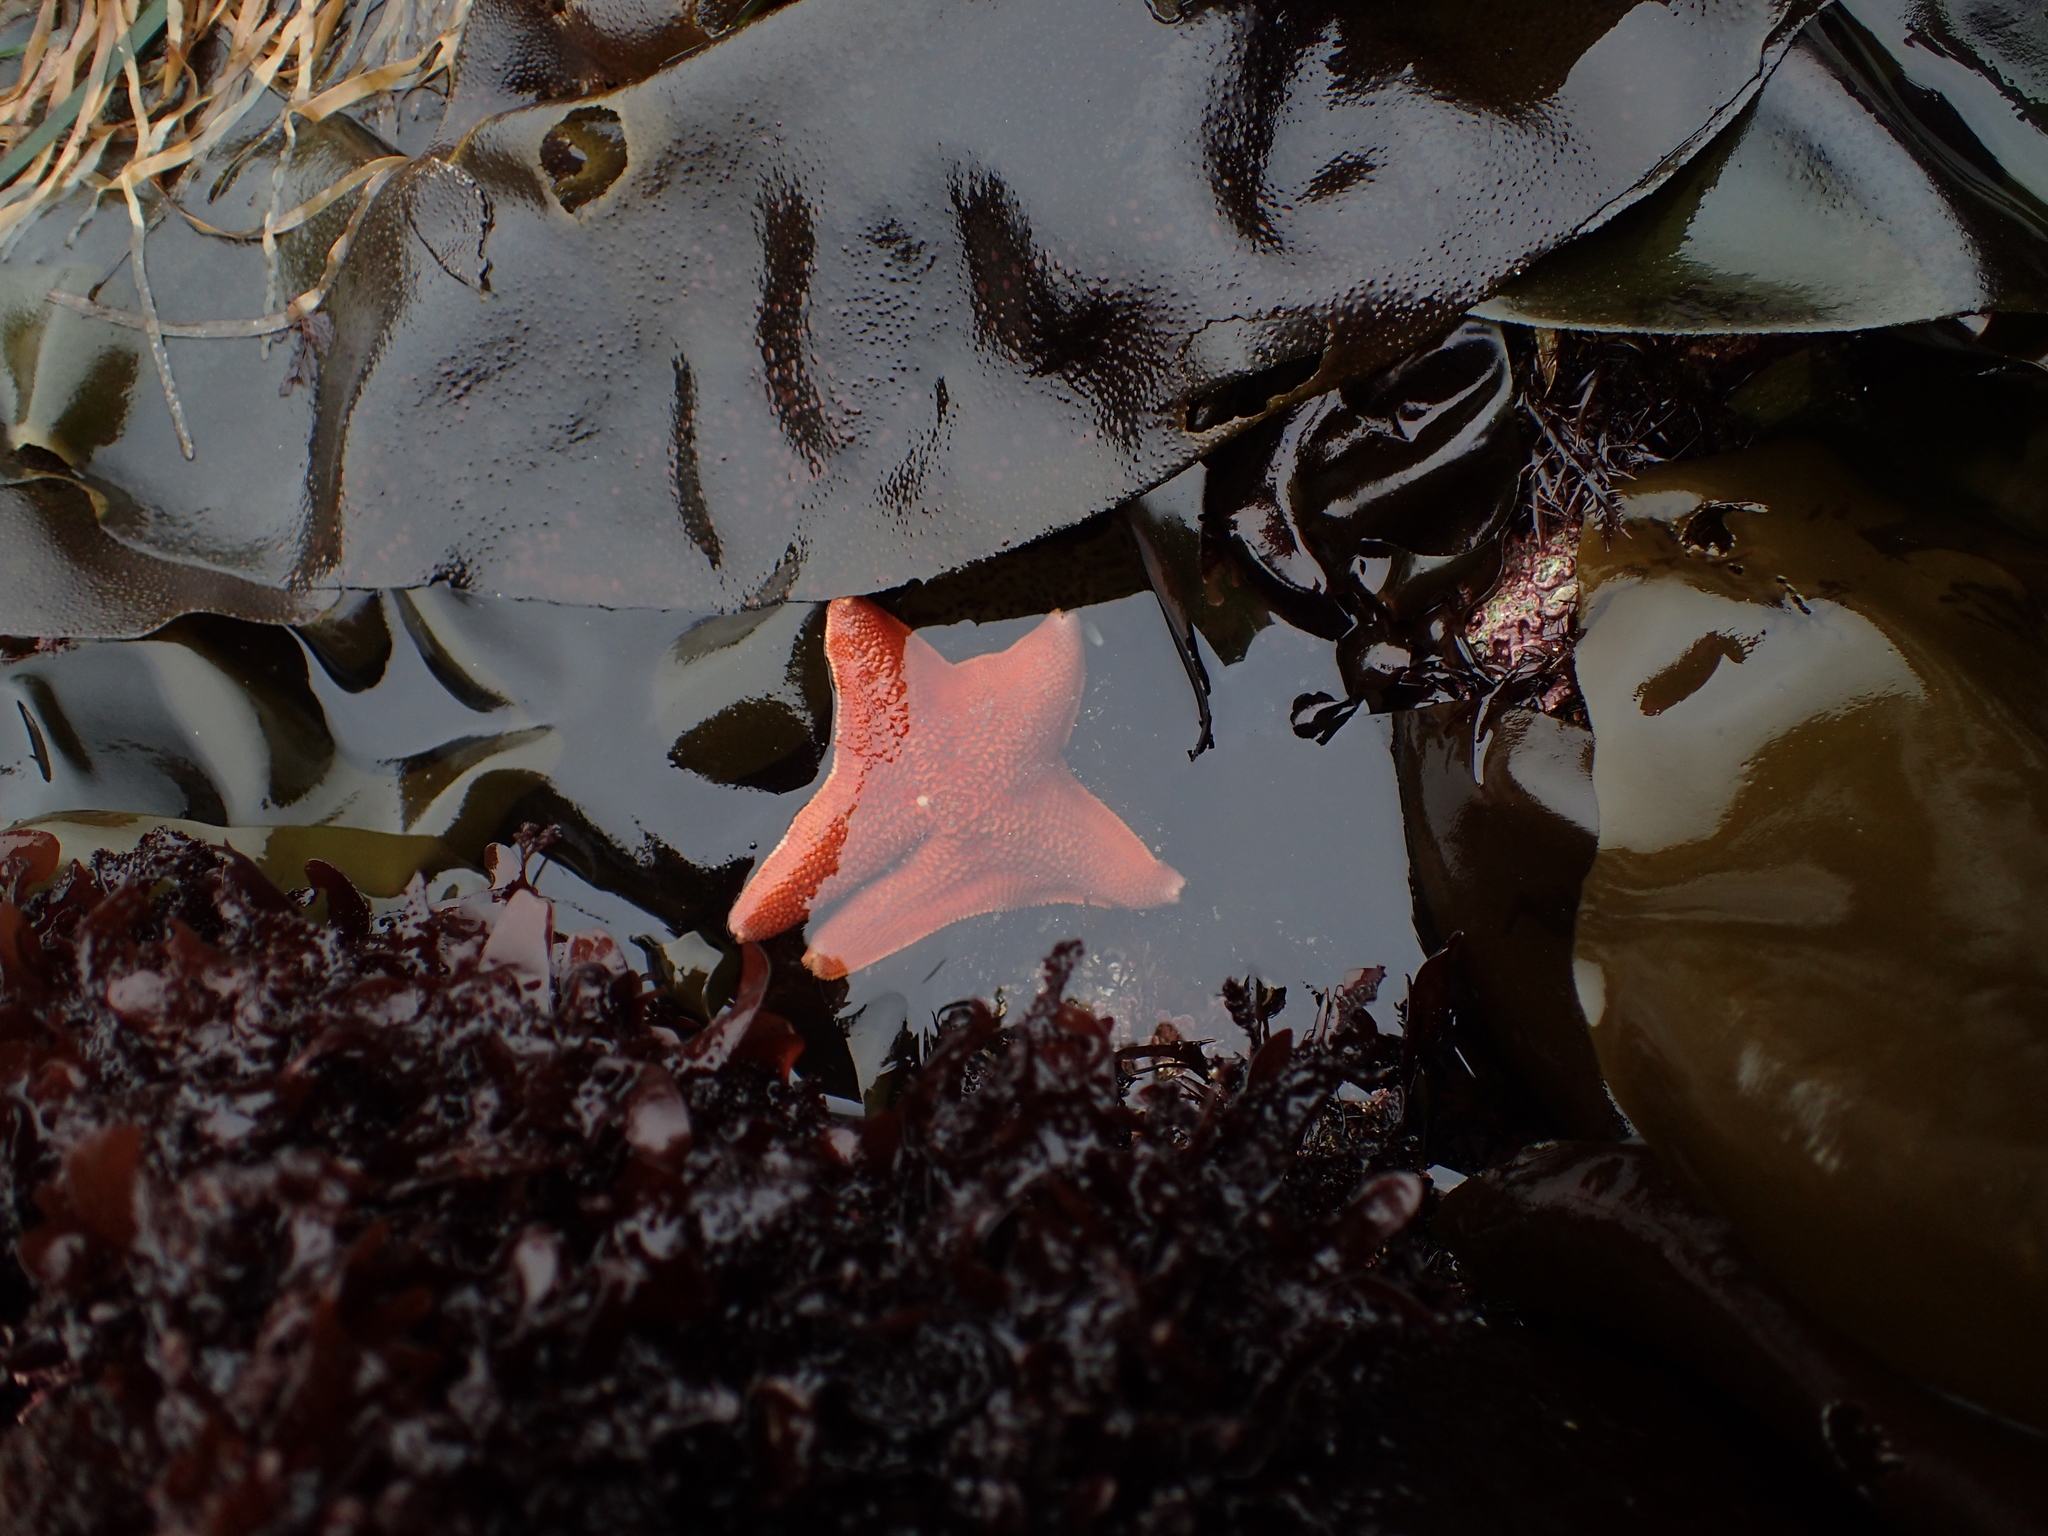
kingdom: Animalia
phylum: Echinodermata
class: Asteroidea
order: Valvatida
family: Asterinidae
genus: Patiria
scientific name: Patiria miniata
